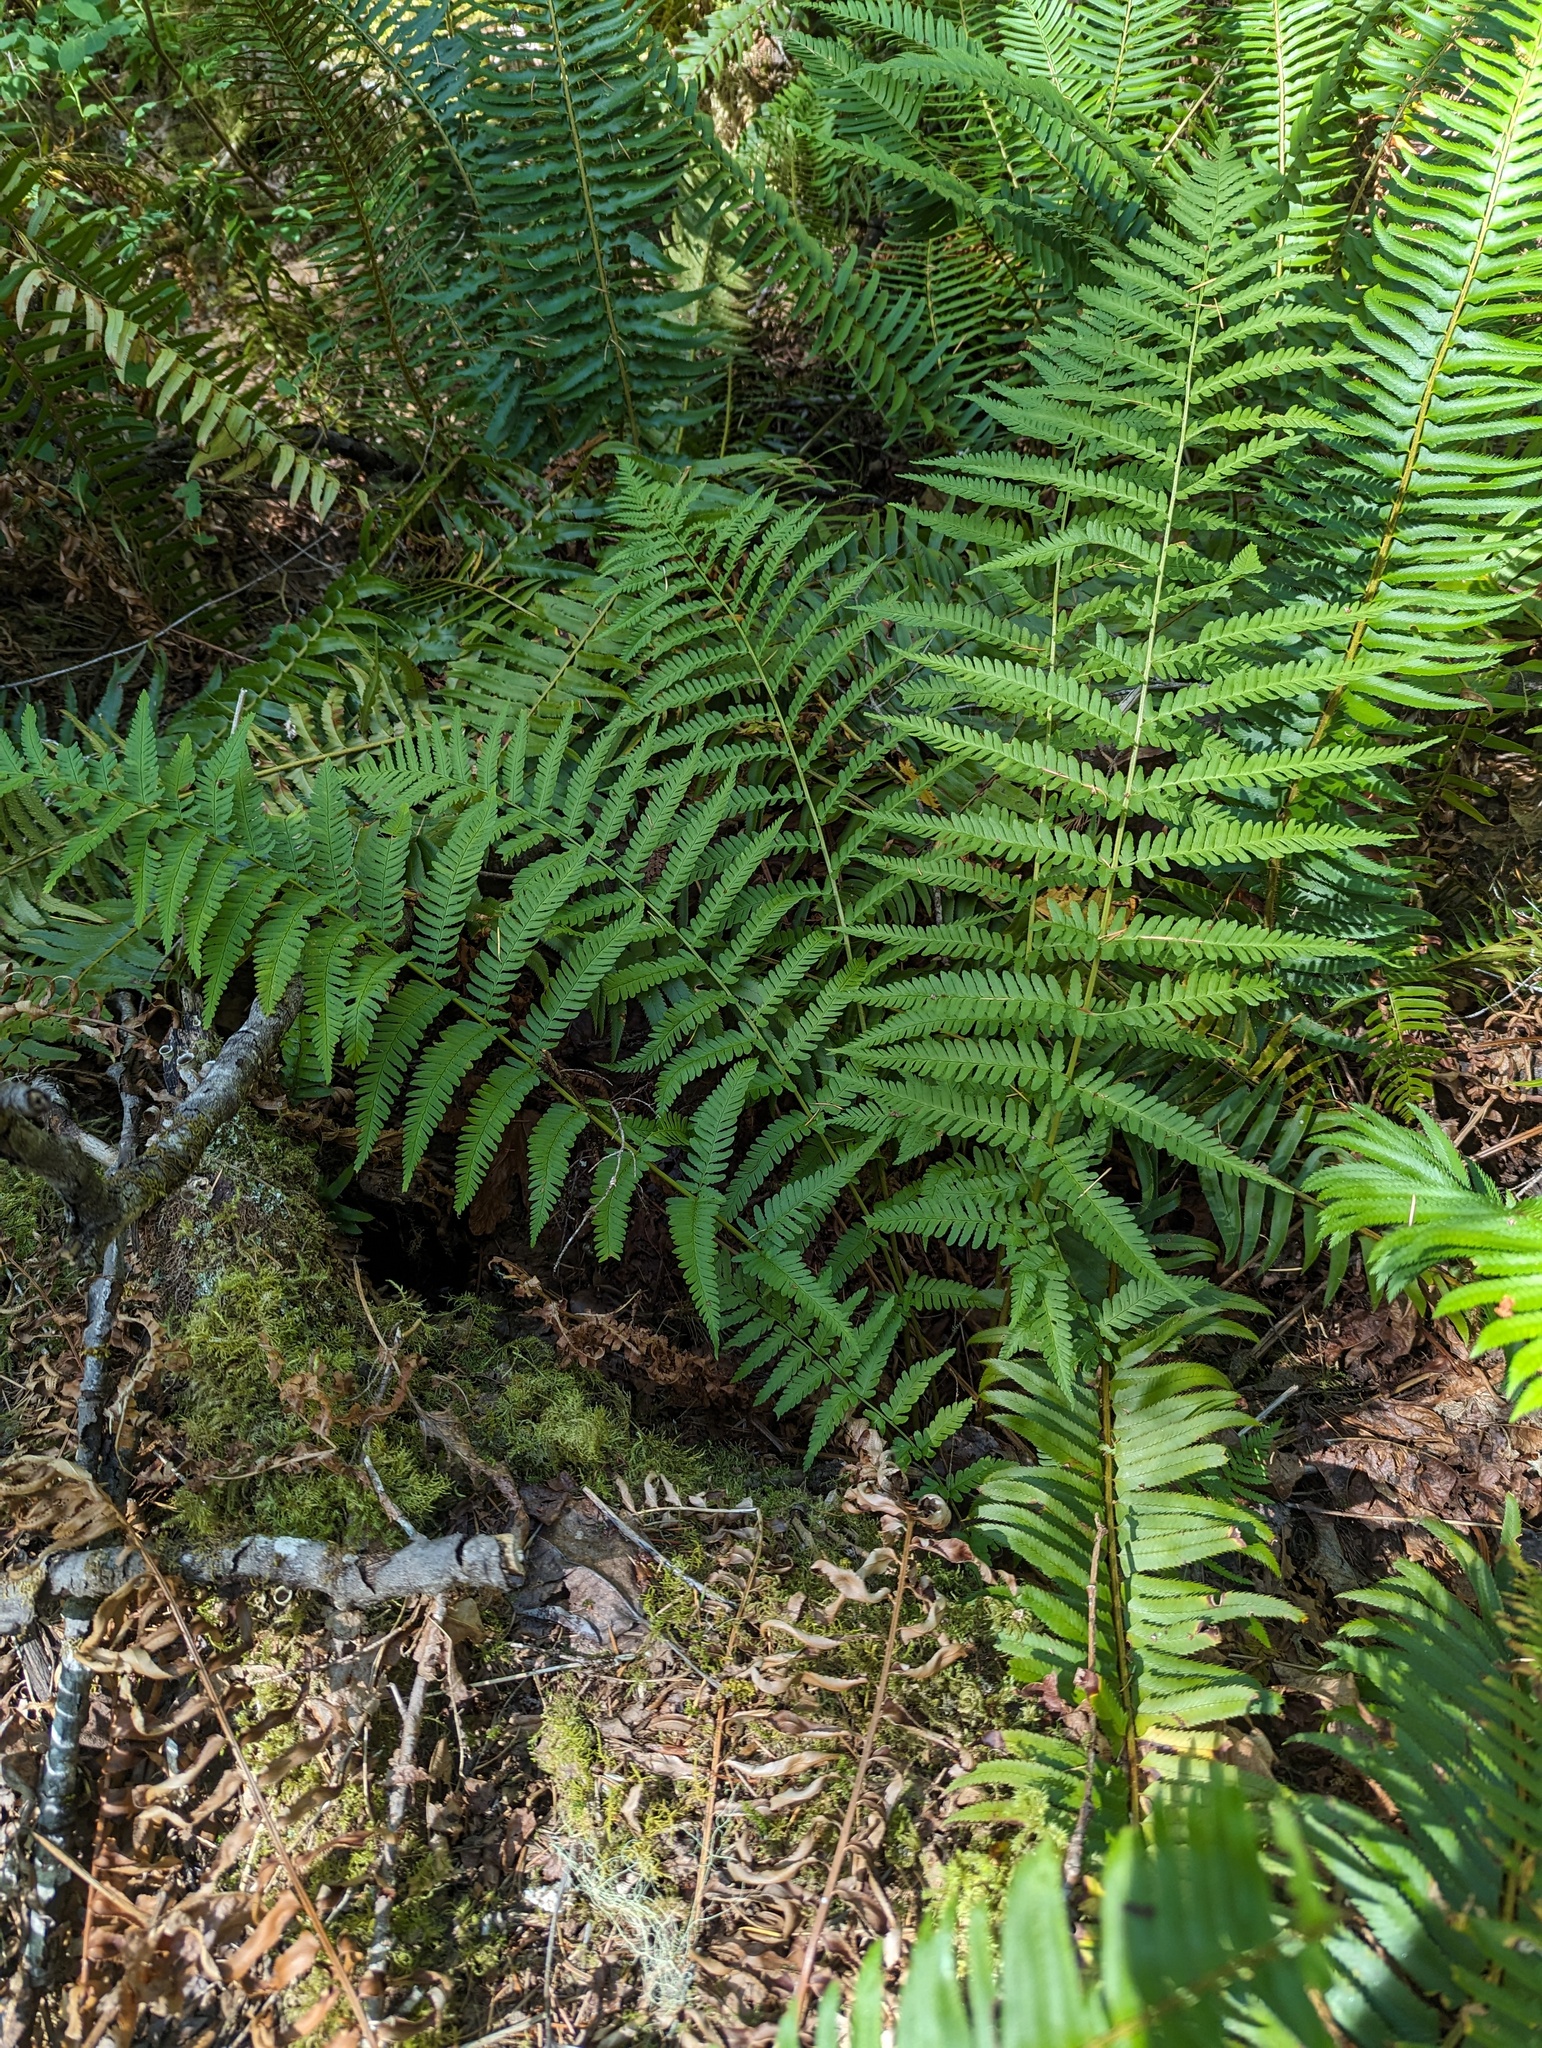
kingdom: Plantae
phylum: Tracheophyta
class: Polypodiopsida
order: Polypodiales
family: Dryopteridaceae
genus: Dryopteris
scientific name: Dryopteris filix-mas
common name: Male fern
